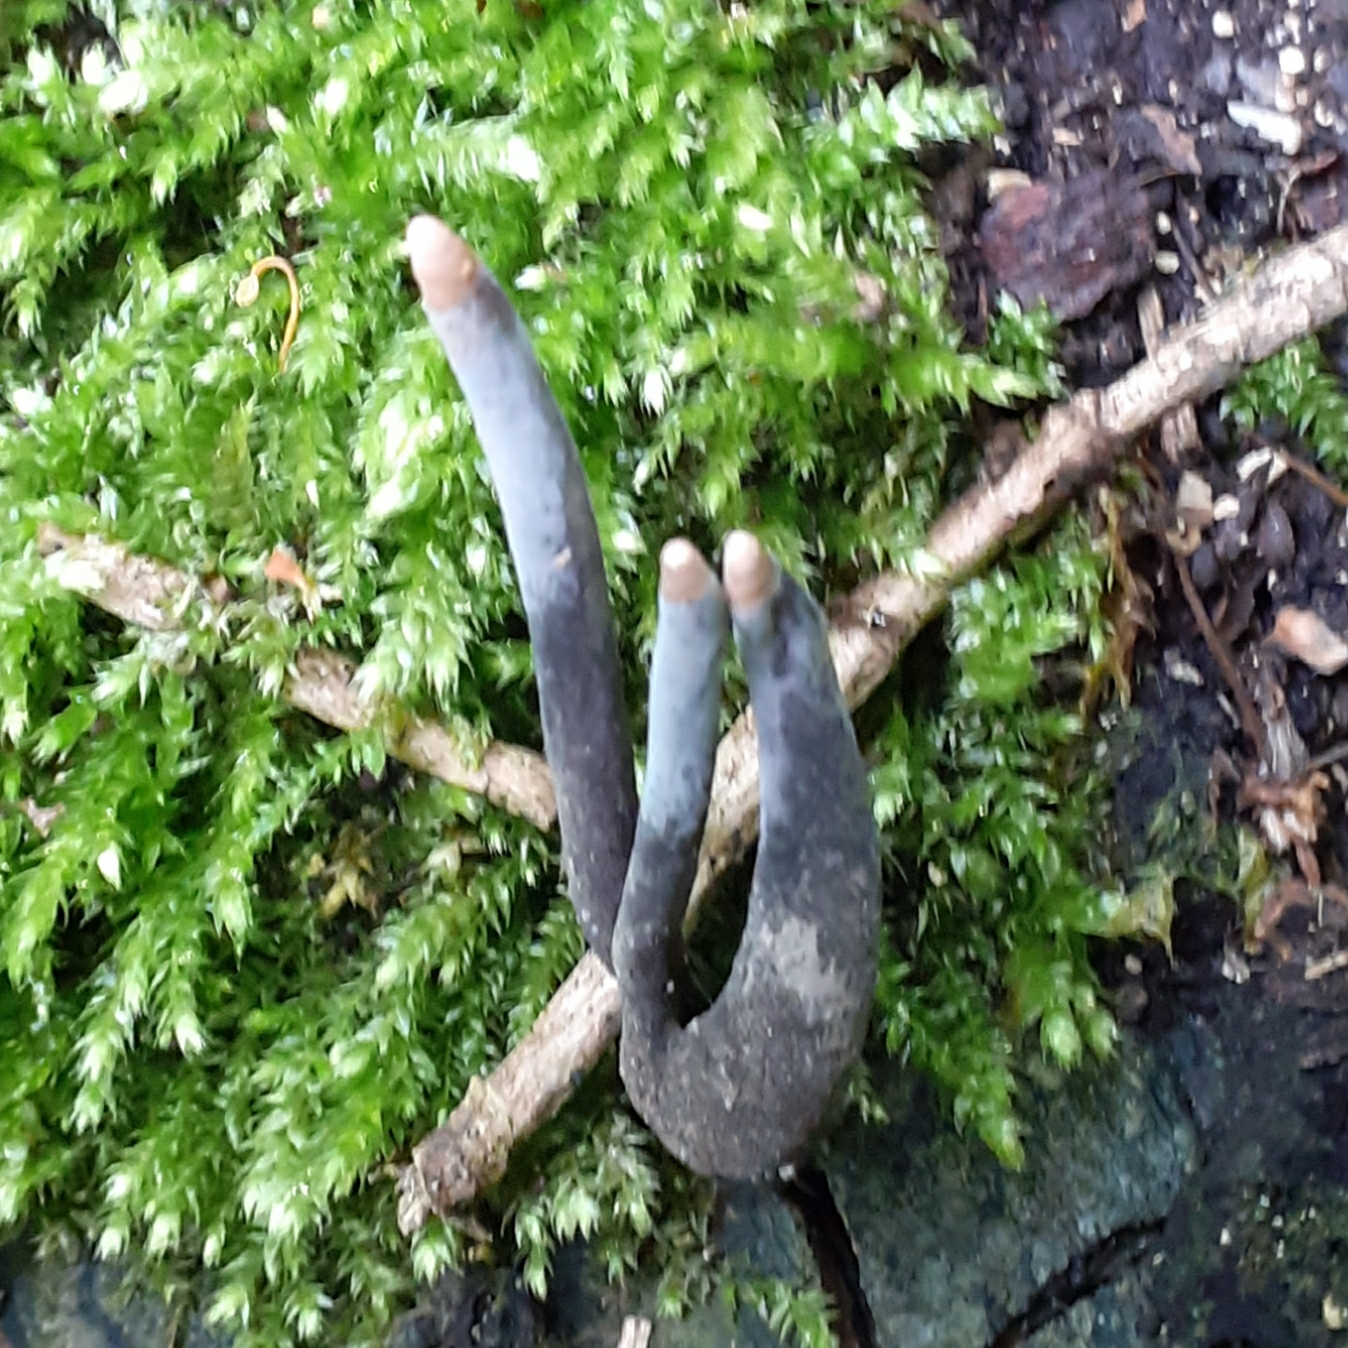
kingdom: Fungi
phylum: Ascomycota
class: Sordariomycetes
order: Xylariales
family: Xylariaceae
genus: Xylaria
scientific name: Xylaria polymorpha
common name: Dead man's fingers
